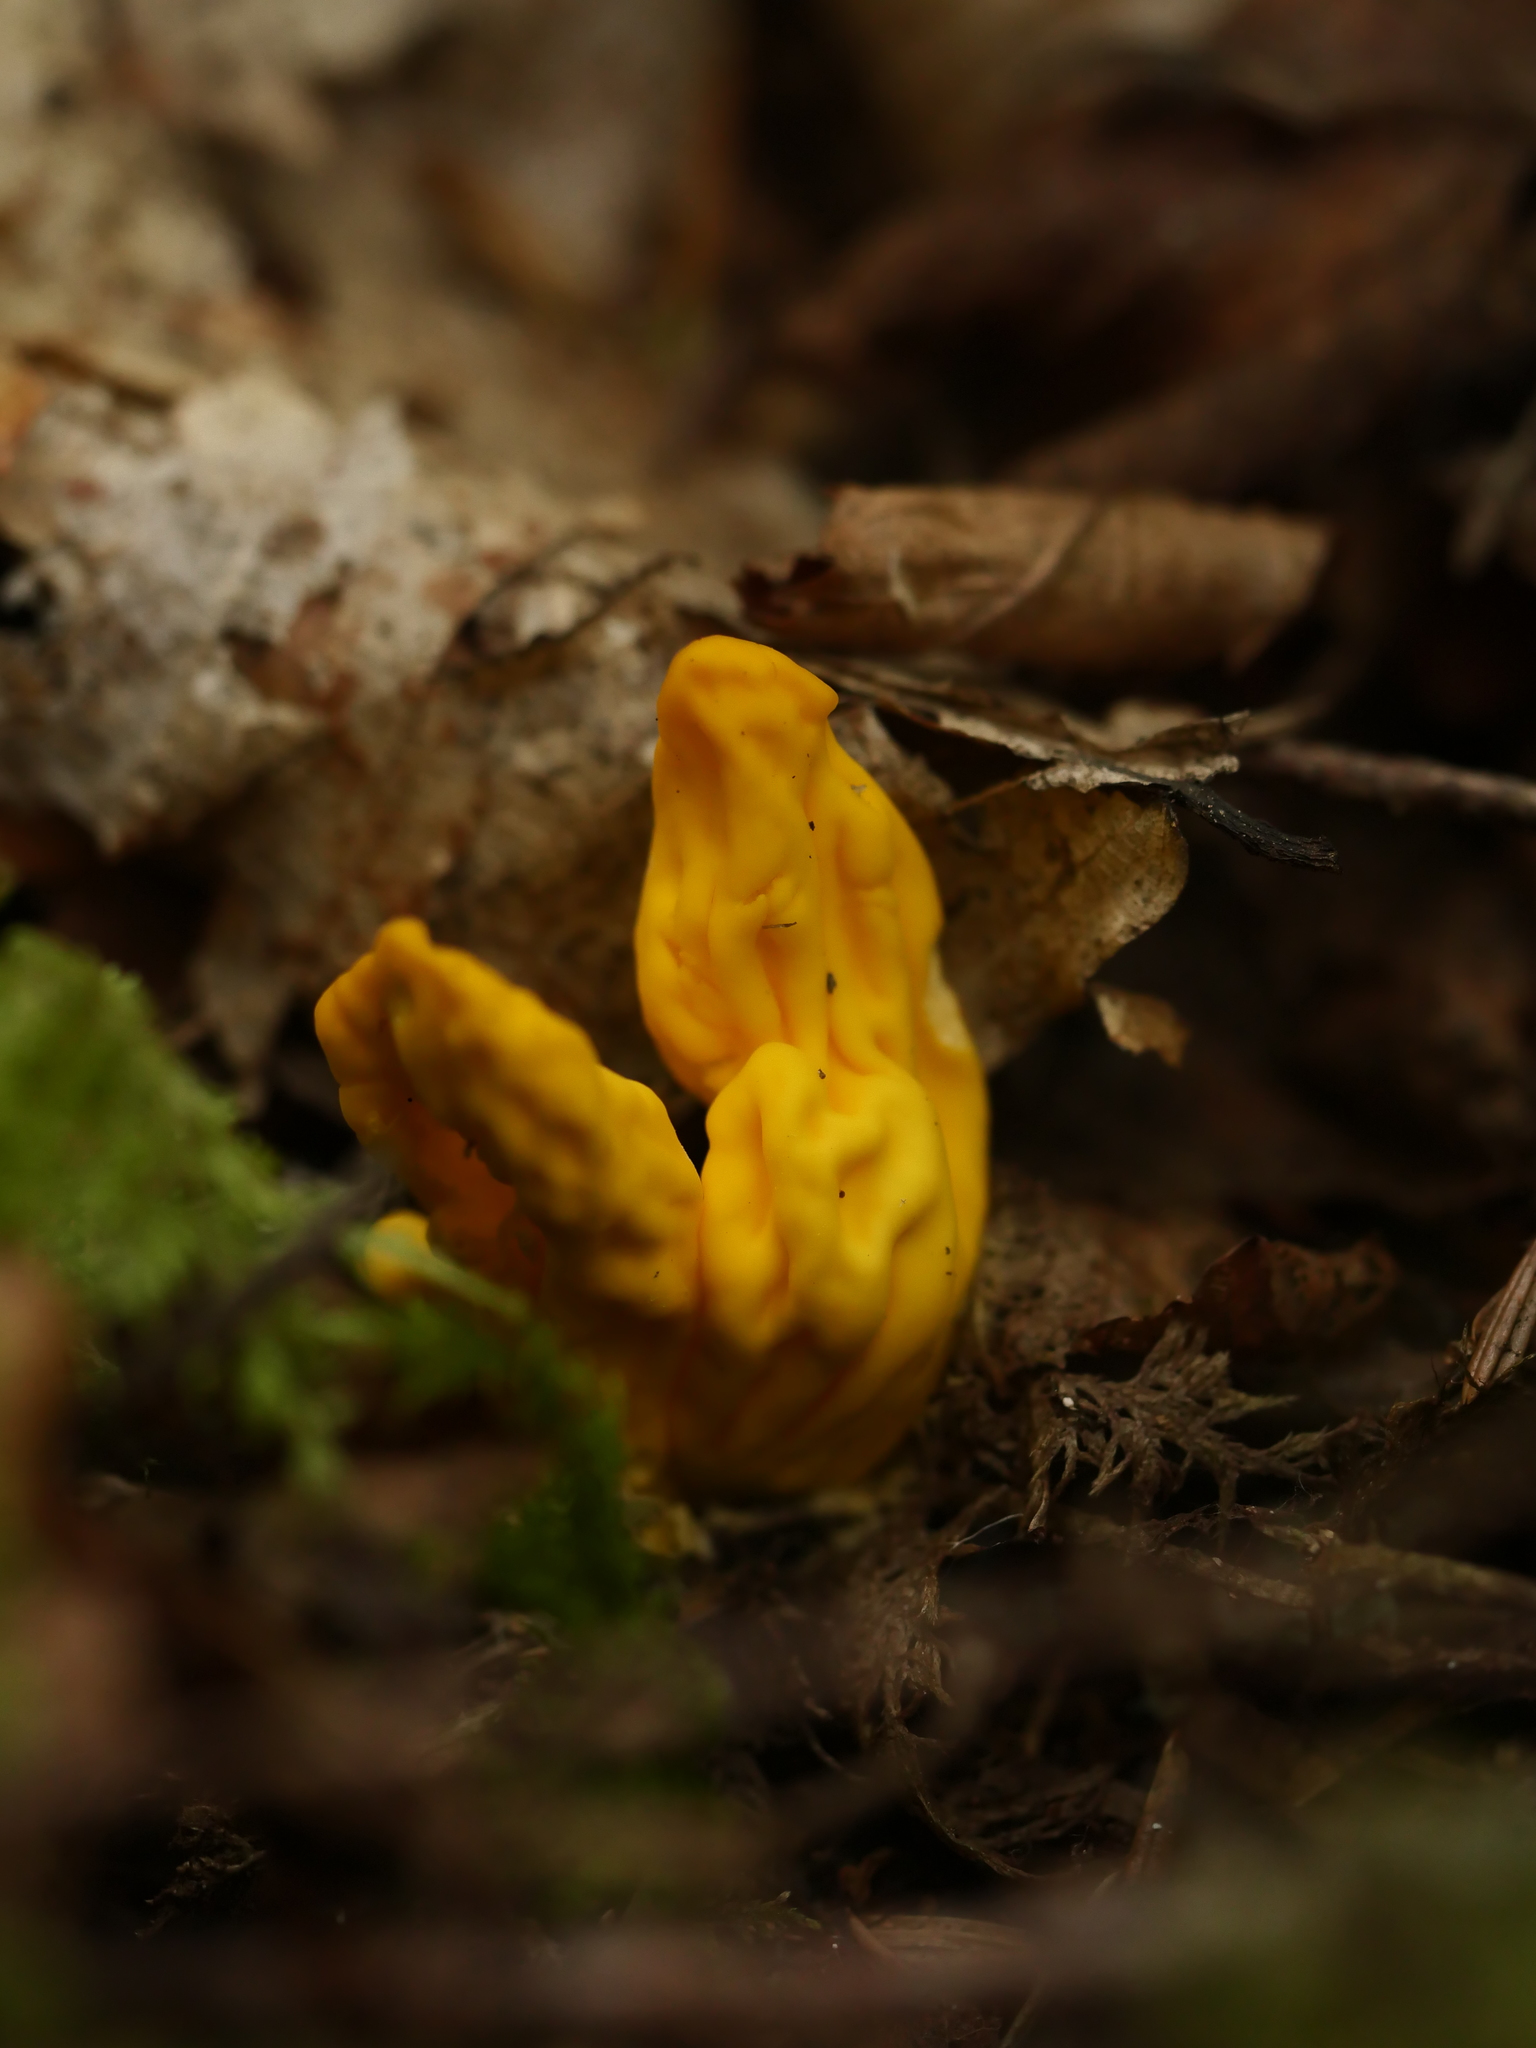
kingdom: Fungi
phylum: Ascomycota
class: Neolectomycetes
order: Neolectales
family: Neolectaceae
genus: Neolecta
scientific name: Neolecta irregularis
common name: Irregular earth tongue
